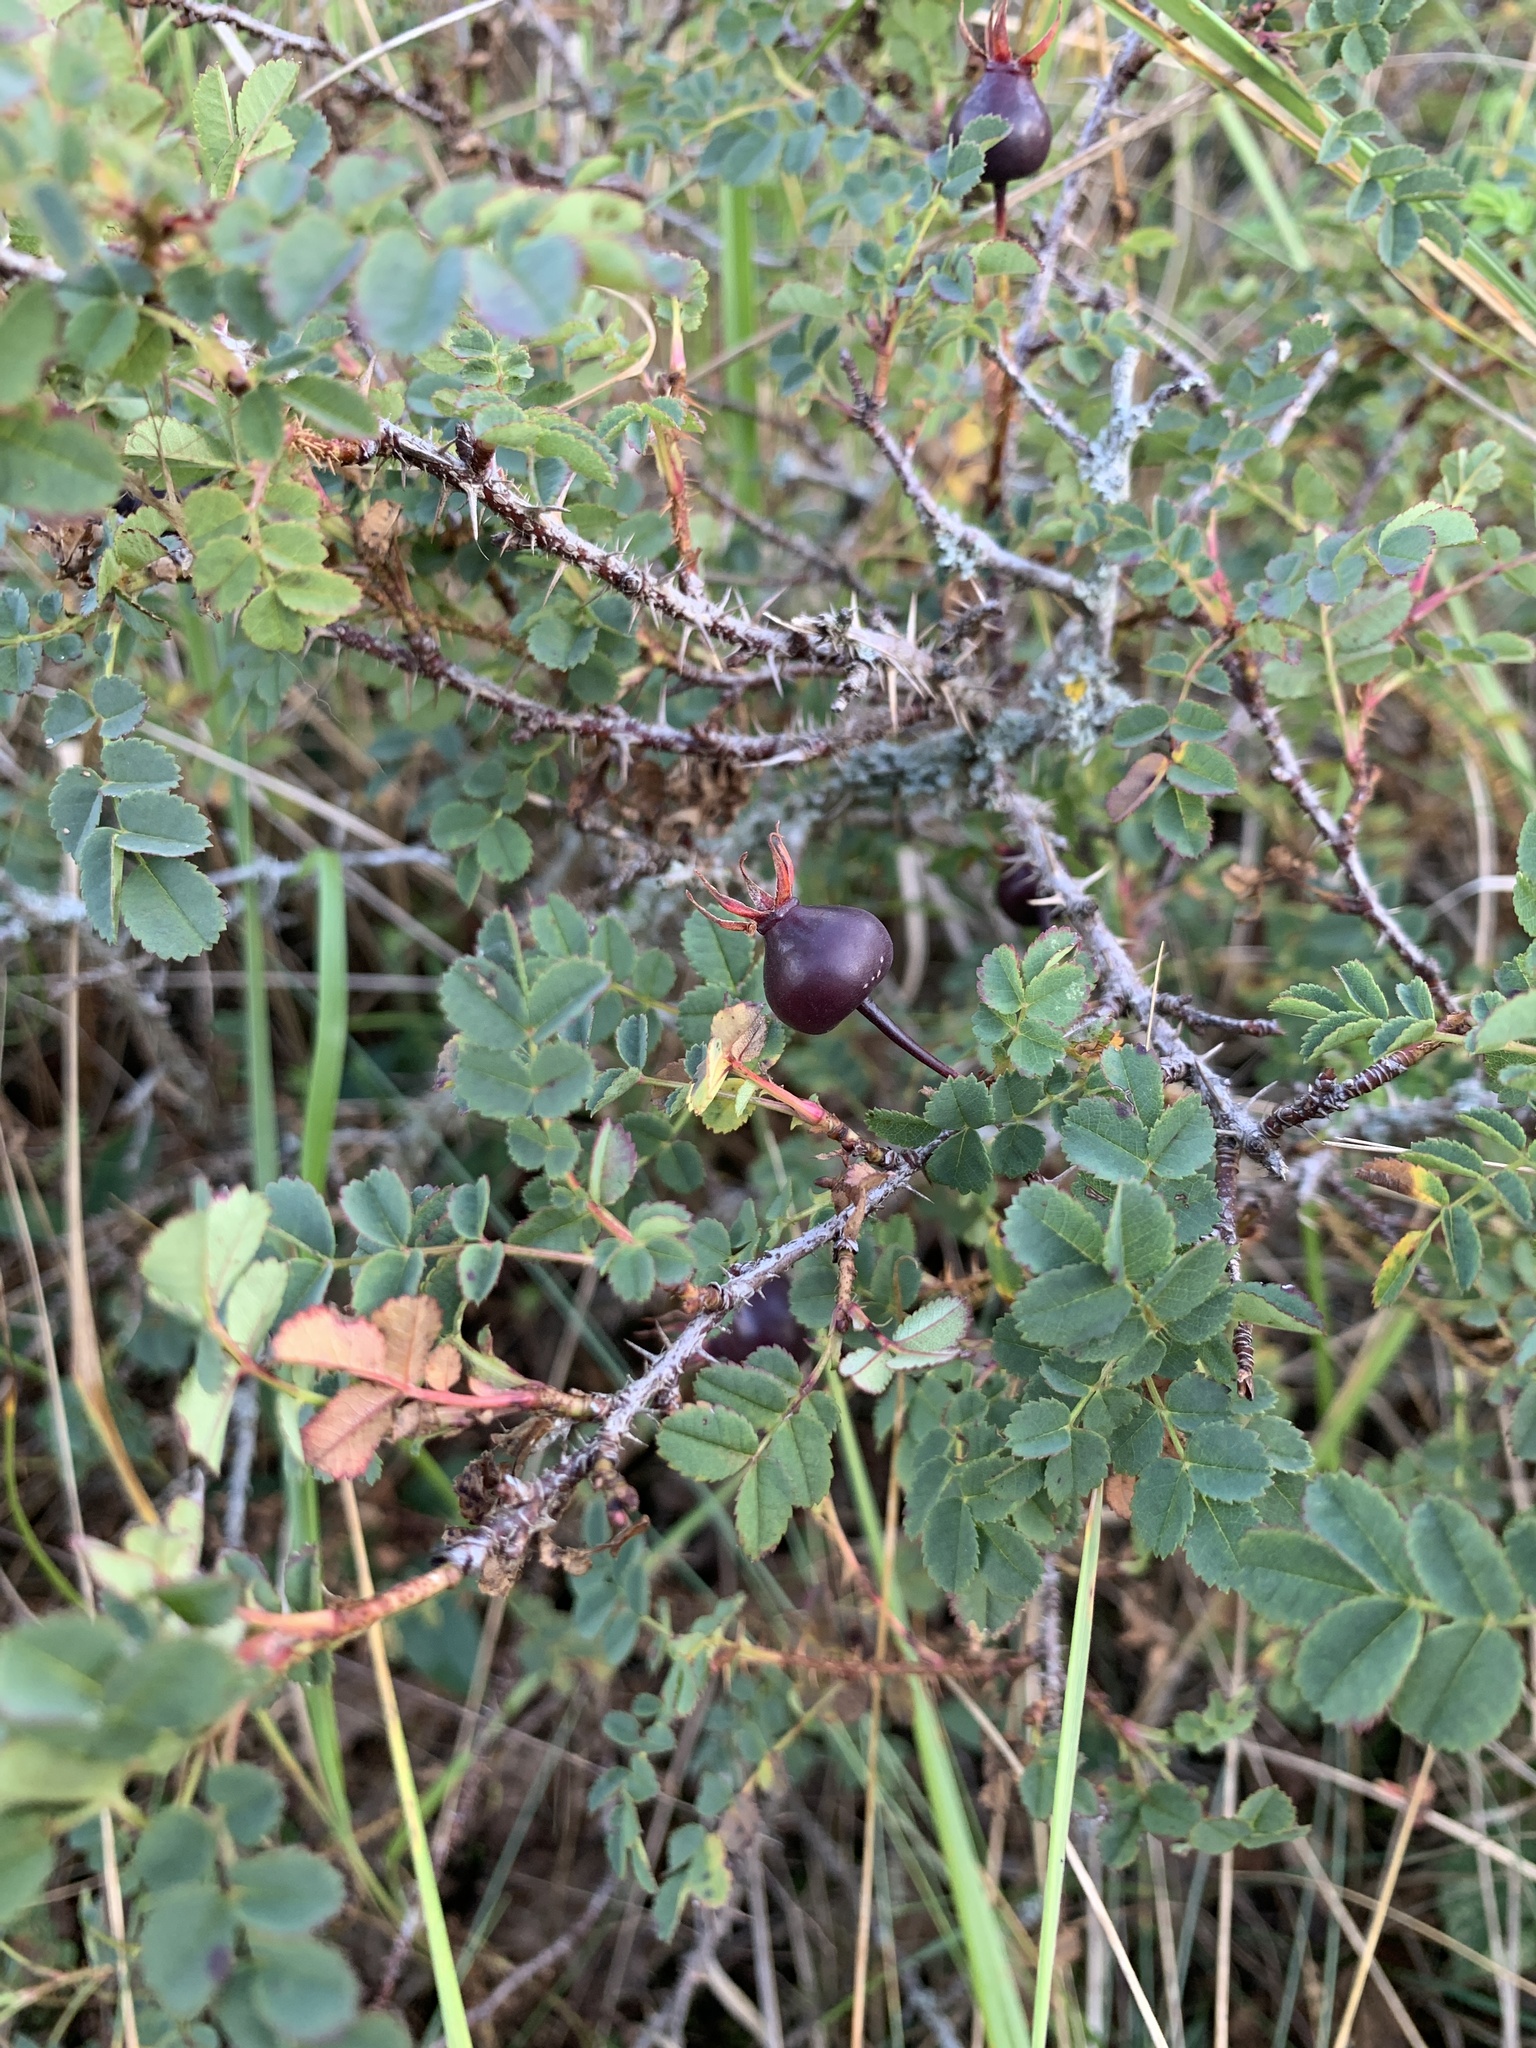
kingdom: Plantae
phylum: Tracheophyta
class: Magnoliopsida
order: Rosales
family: Rosaceae
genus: Rosa
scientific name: Rosa spinosissima
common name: Burnet rose
